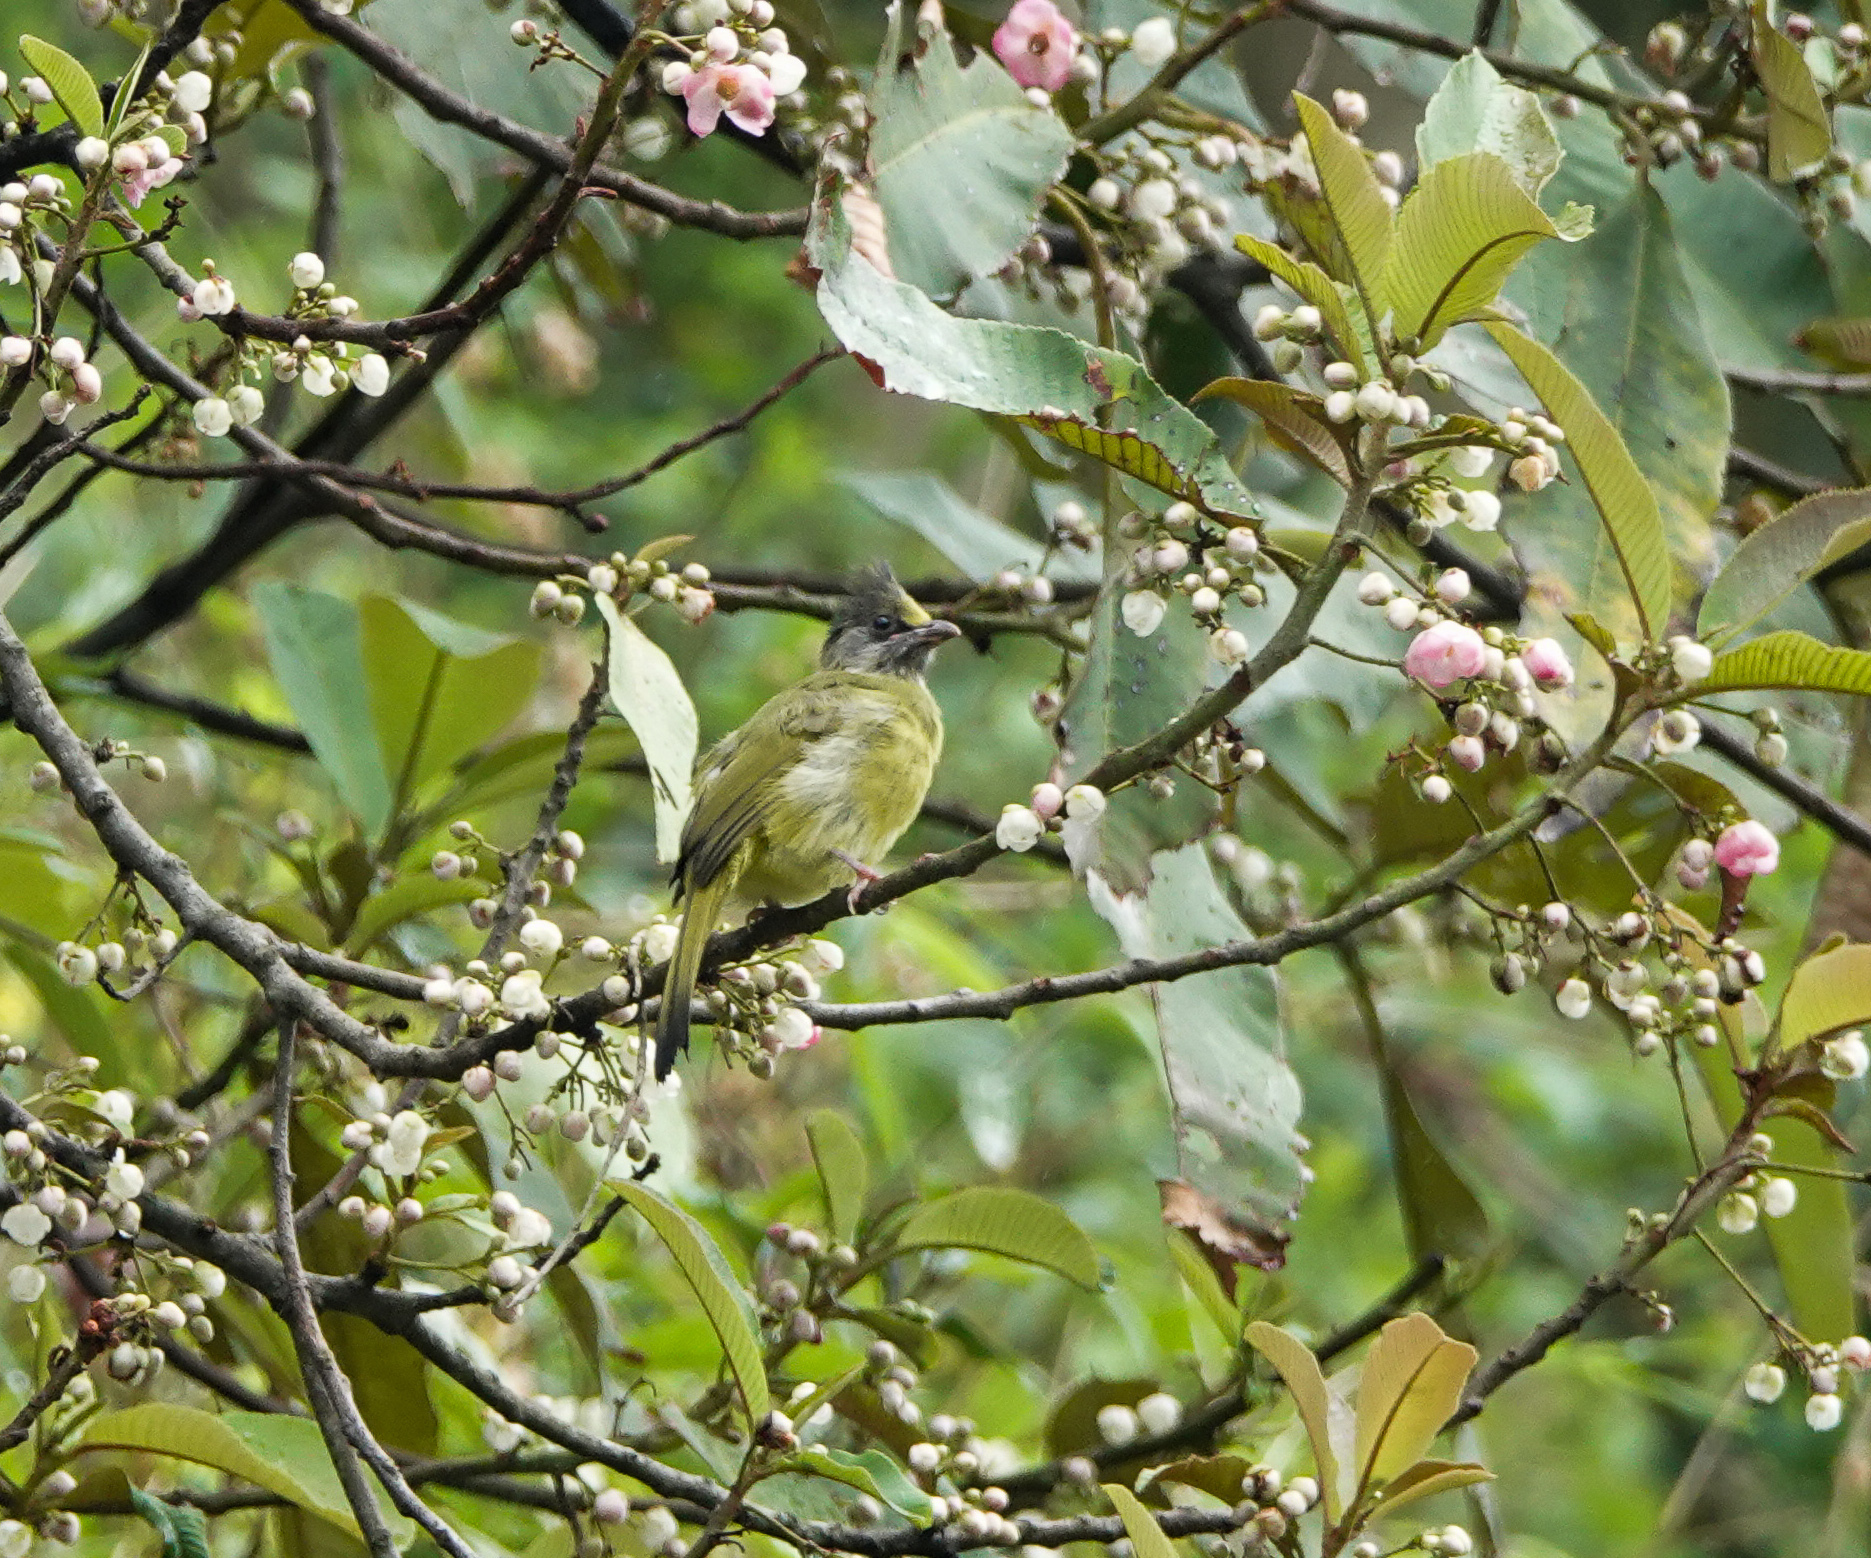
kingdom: Animalia
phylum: Chordata
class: Aves
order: Passeriformes
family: Pycnonotidae
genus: Spizixos
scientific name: Spizixos canifrons
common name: Crested finchbill
